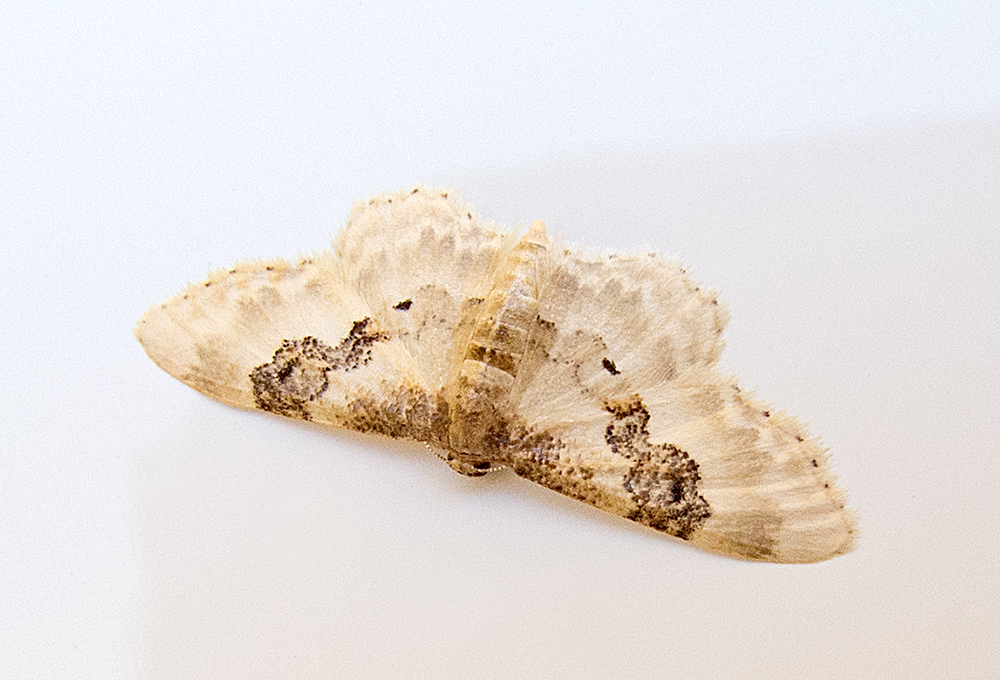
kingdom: Animalia
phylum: Arthropoda
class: Insecta
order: Lepidoptera
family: Geometridae
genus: Idaea
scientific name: Idaea rusticata
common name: Least carpet
